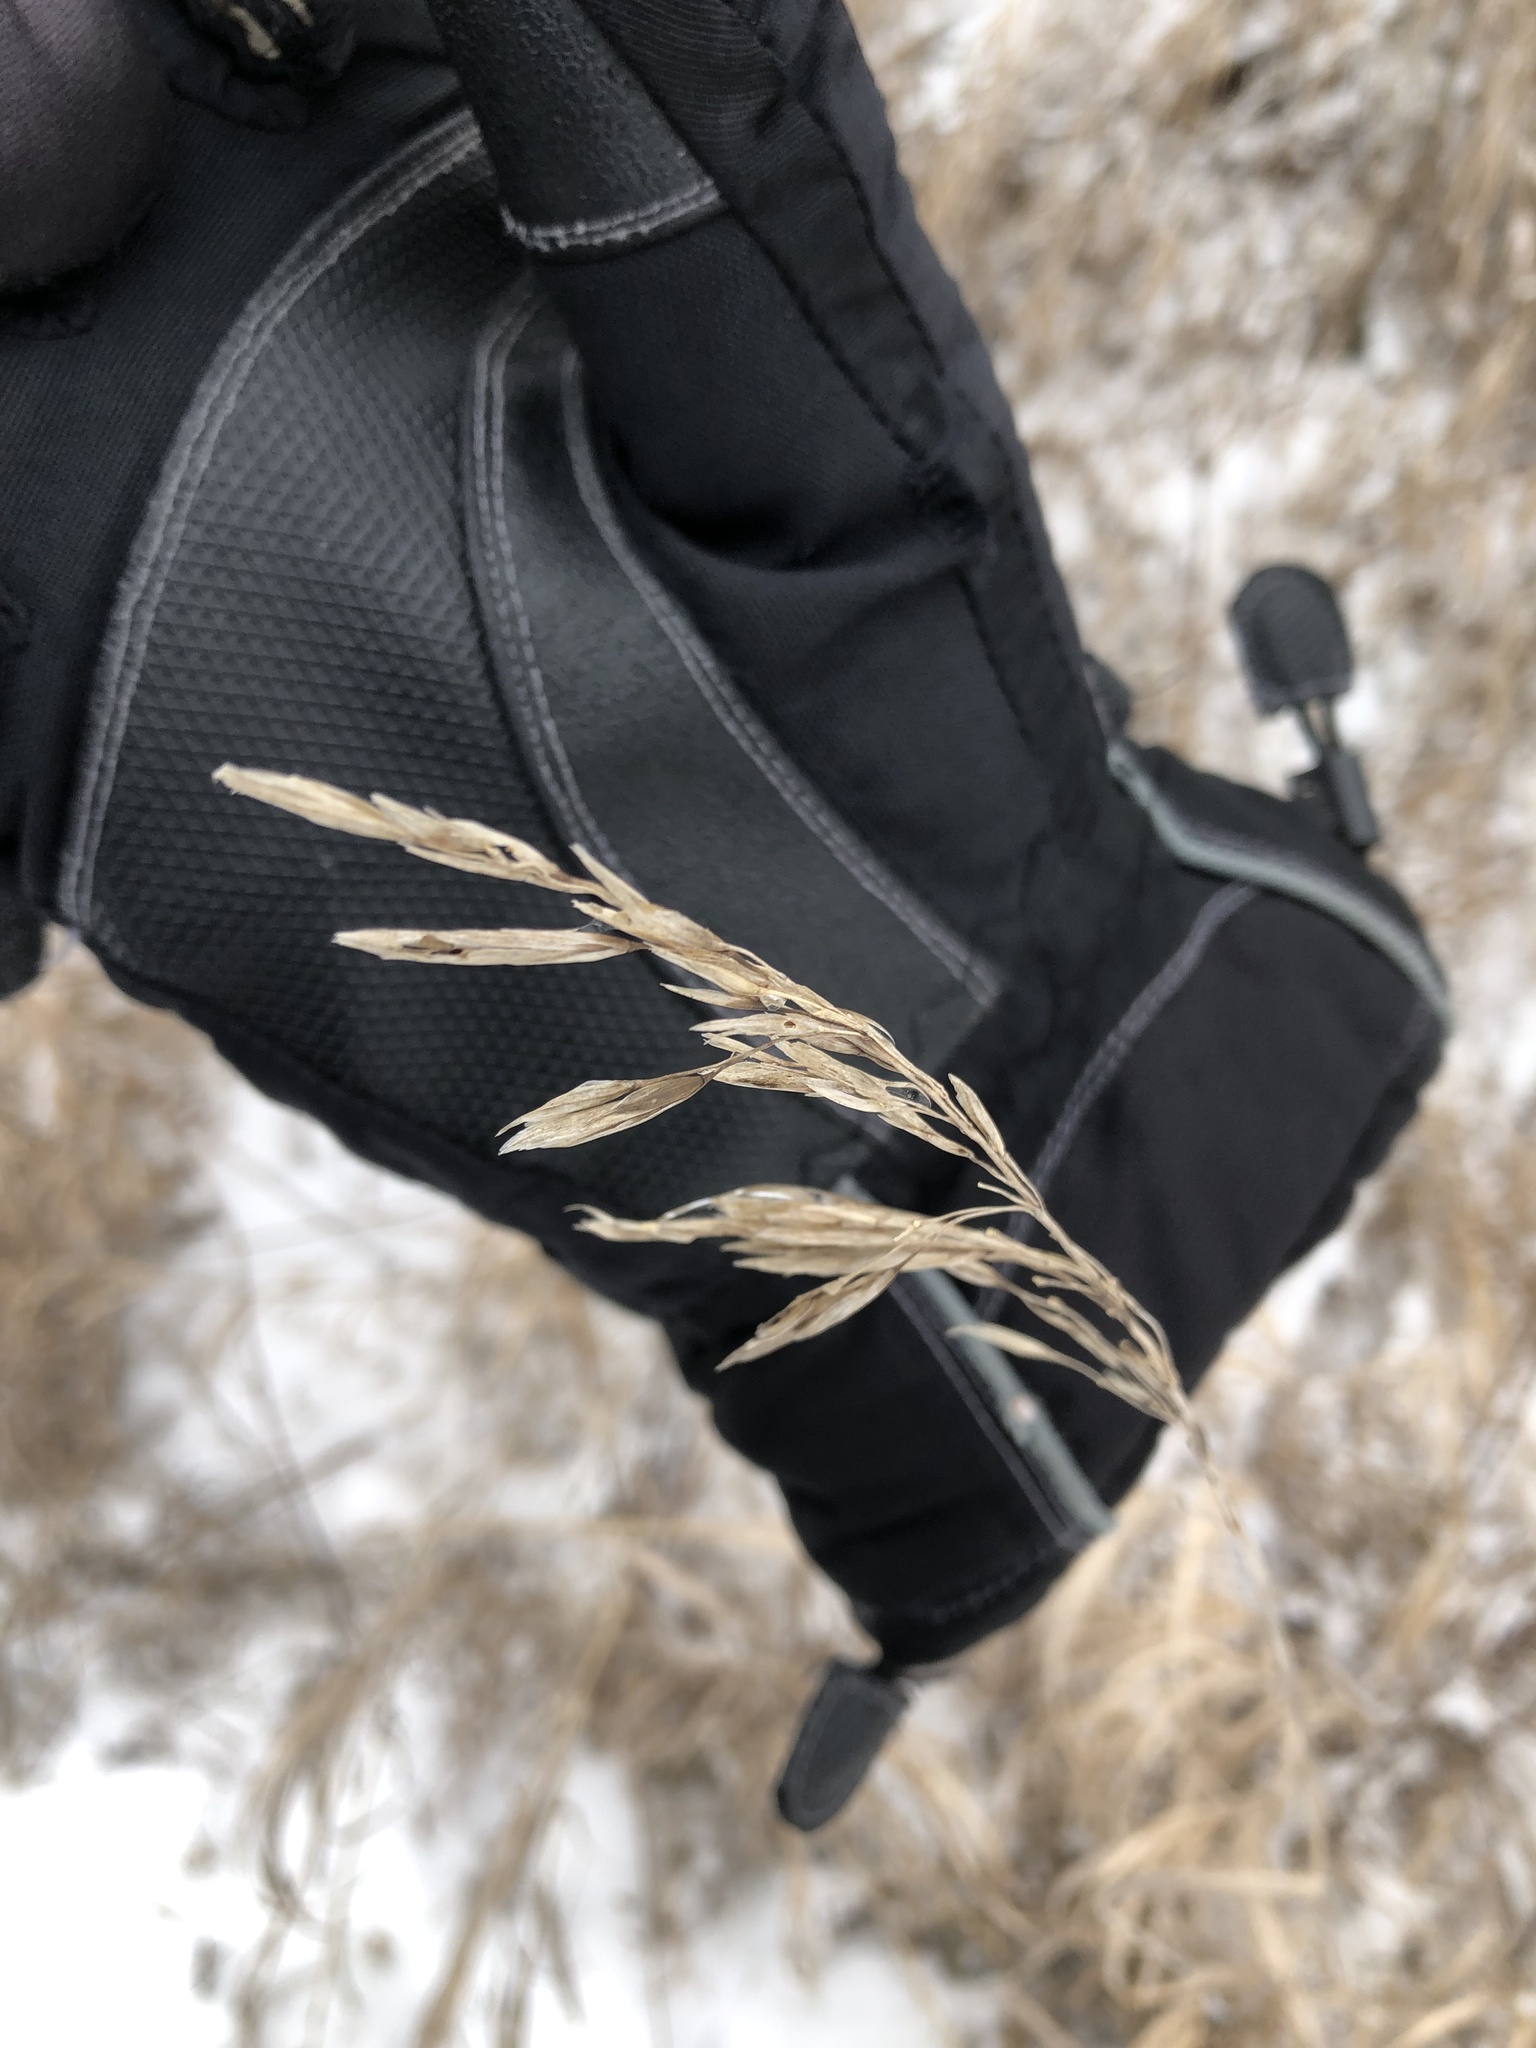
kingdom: Plantae
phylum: Tracheophyta
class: Liliopsida
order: Poales
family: Poaceae
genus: Bromus
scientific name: Bromus inermis
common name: Smooth brome
